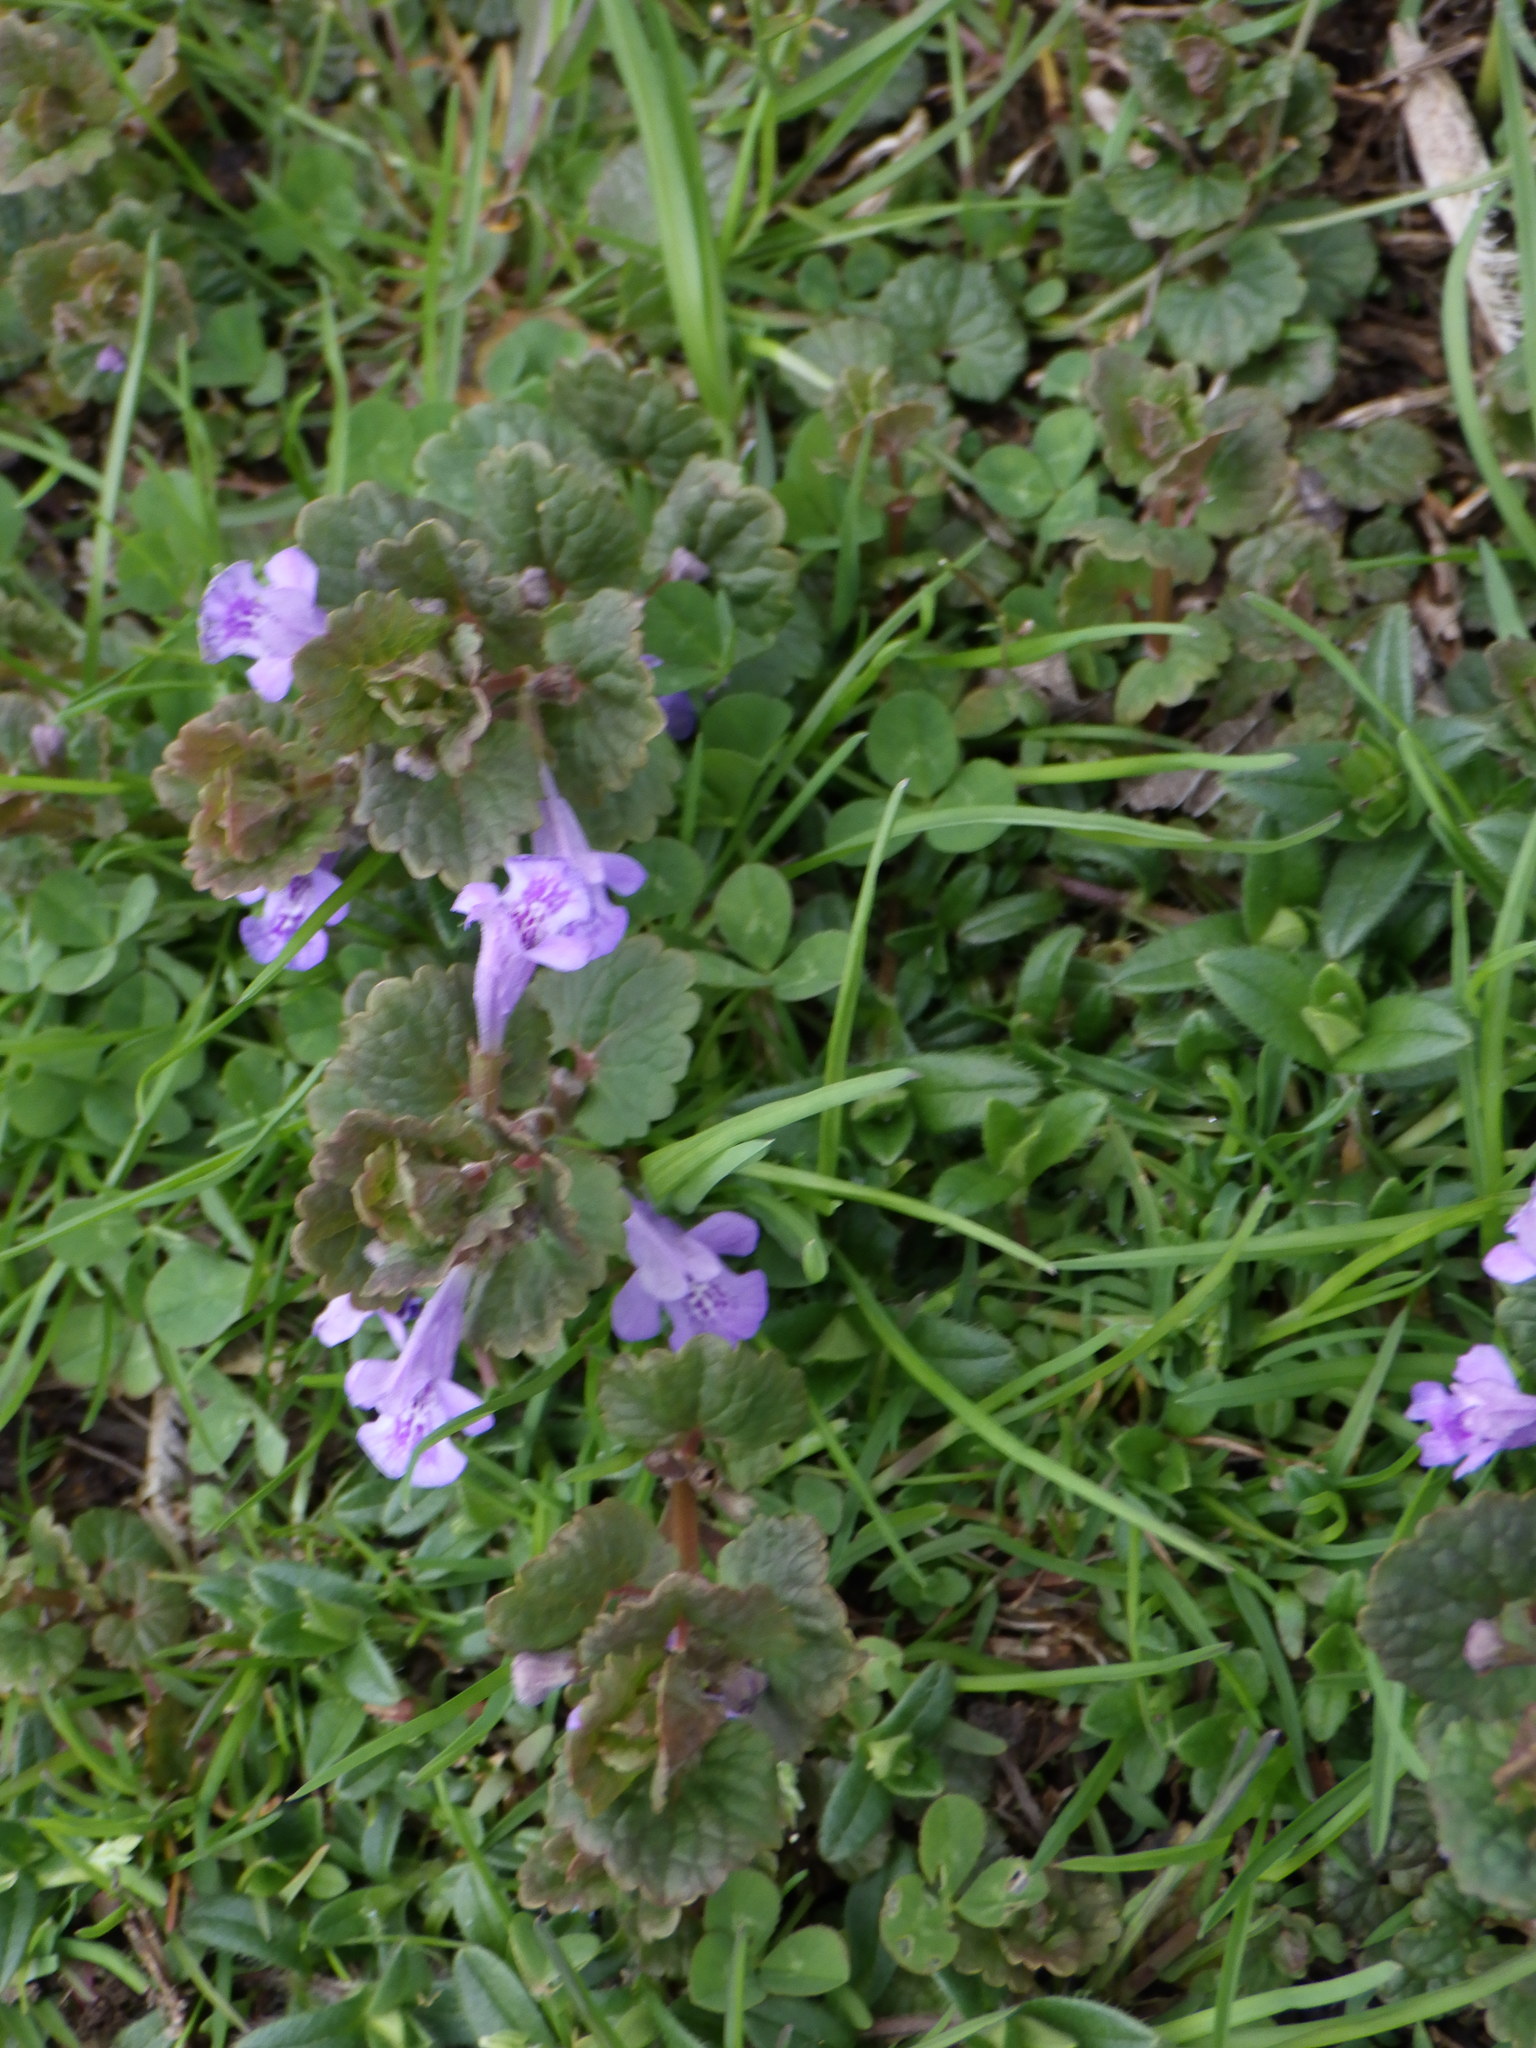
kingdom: Plantae
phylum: Tracheophyta
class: Magnoliopsida
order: Lamiales
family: Lamiaceae
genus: Glechoma
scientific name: Glechoma hederacea
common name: Ground ivy
